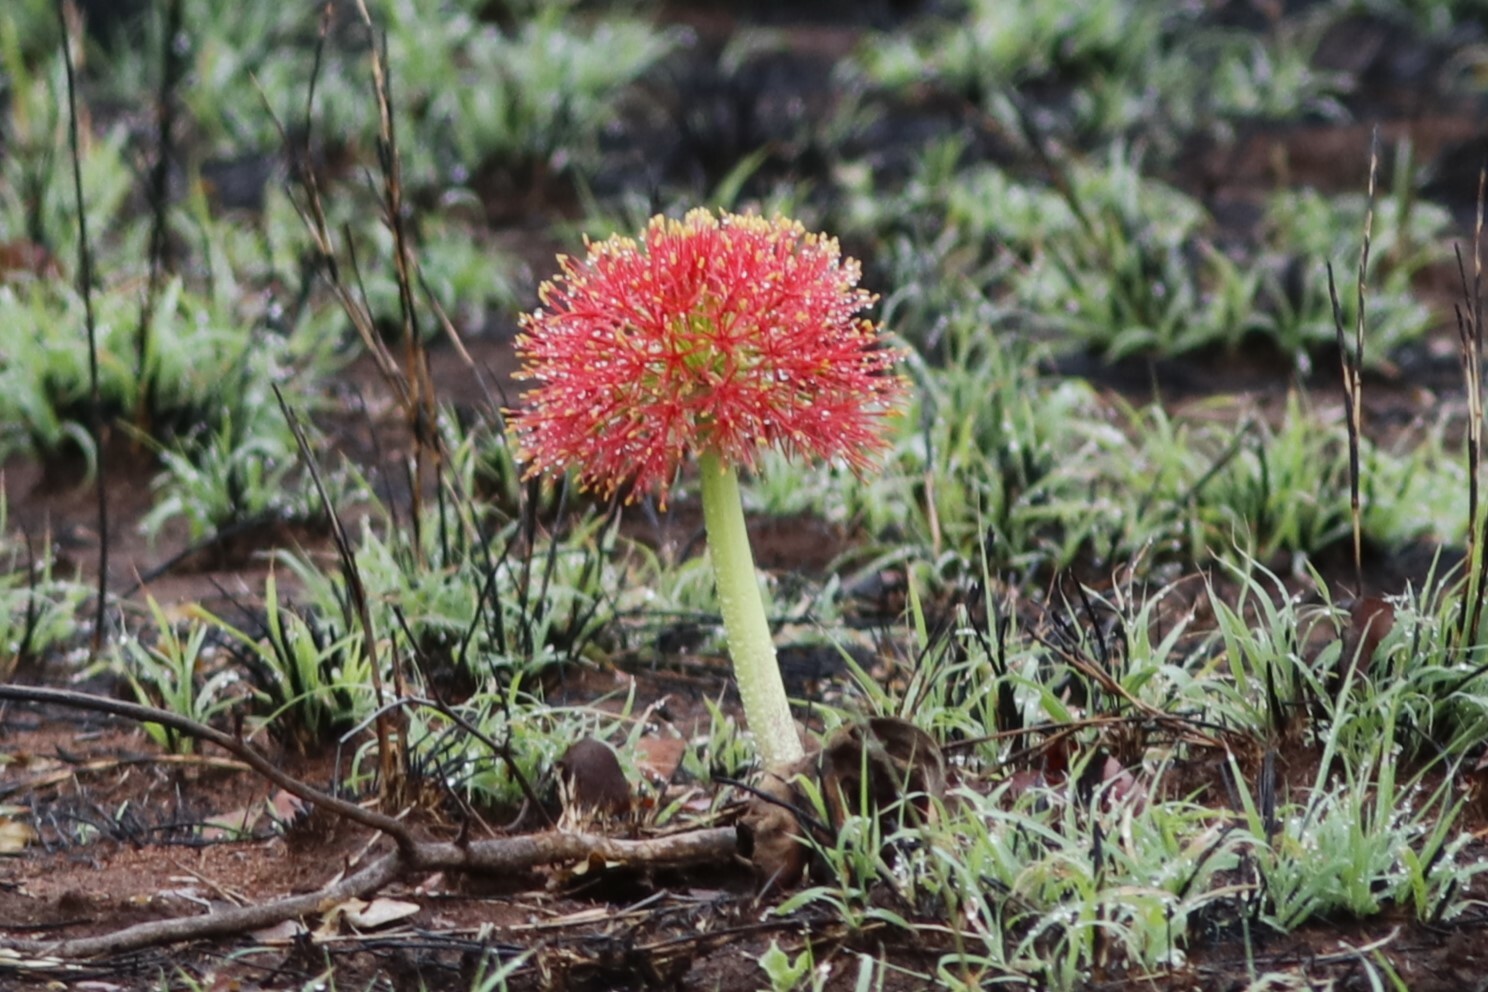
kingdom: Plantae
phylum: Tracheophyta
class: Liliopsida
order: Asparagales
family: Amaryllidaceae
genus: Scadoxus
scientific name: Scadoxus multiflorus
